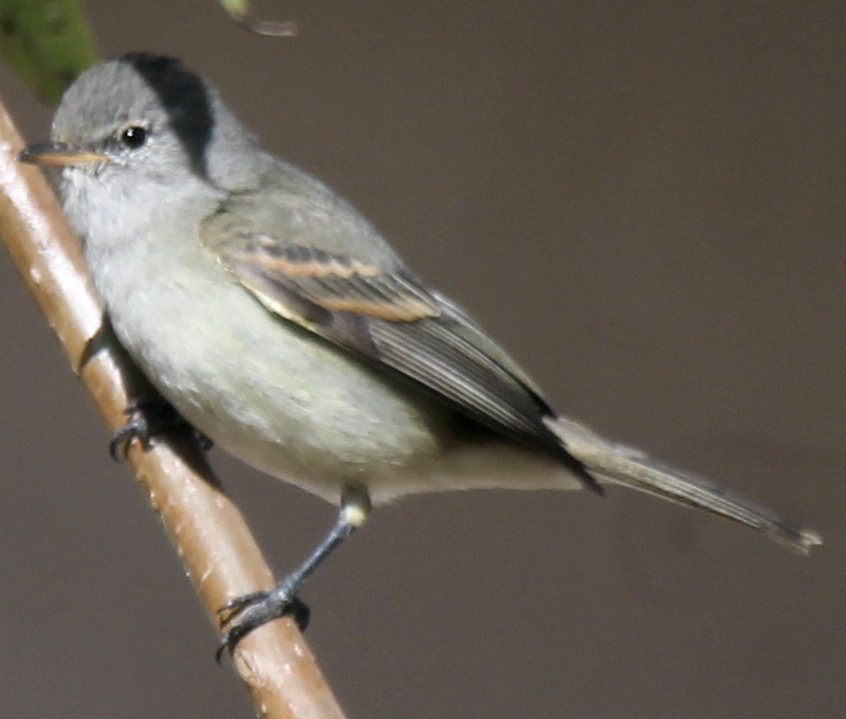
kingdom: Animalia
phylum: Chordata
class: Aves
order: Passeriformes
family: Tyrannidae
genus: Camptostoma
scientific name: Camptostoma obsoletum
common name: Southern beardless-tyrannulet
